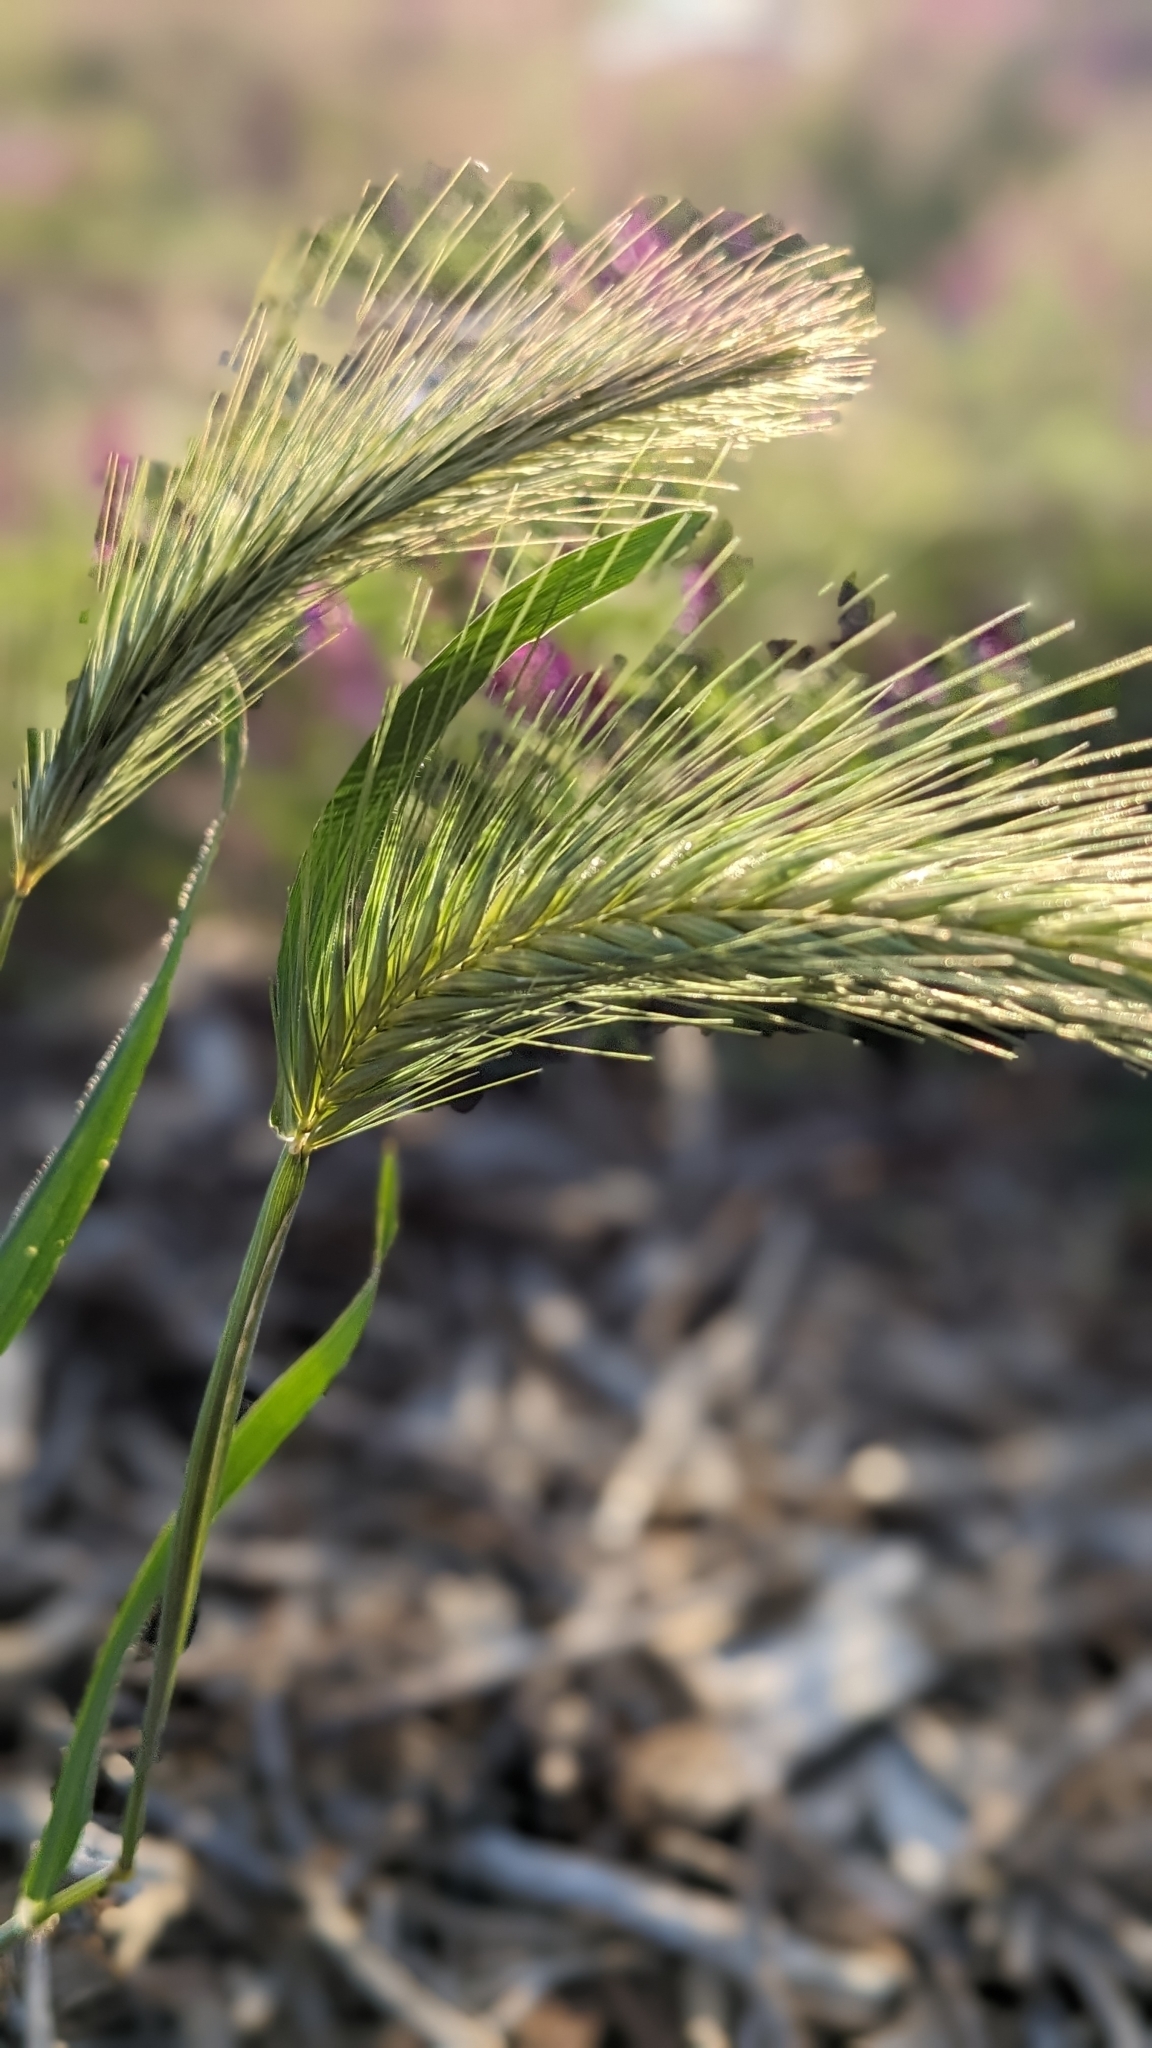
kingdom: Plantae
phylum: Tracheophyta
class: Liliopsida
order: Poales
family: Poaceae
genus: Hordeum
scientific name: Hordeum murinum
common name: Wall barley
